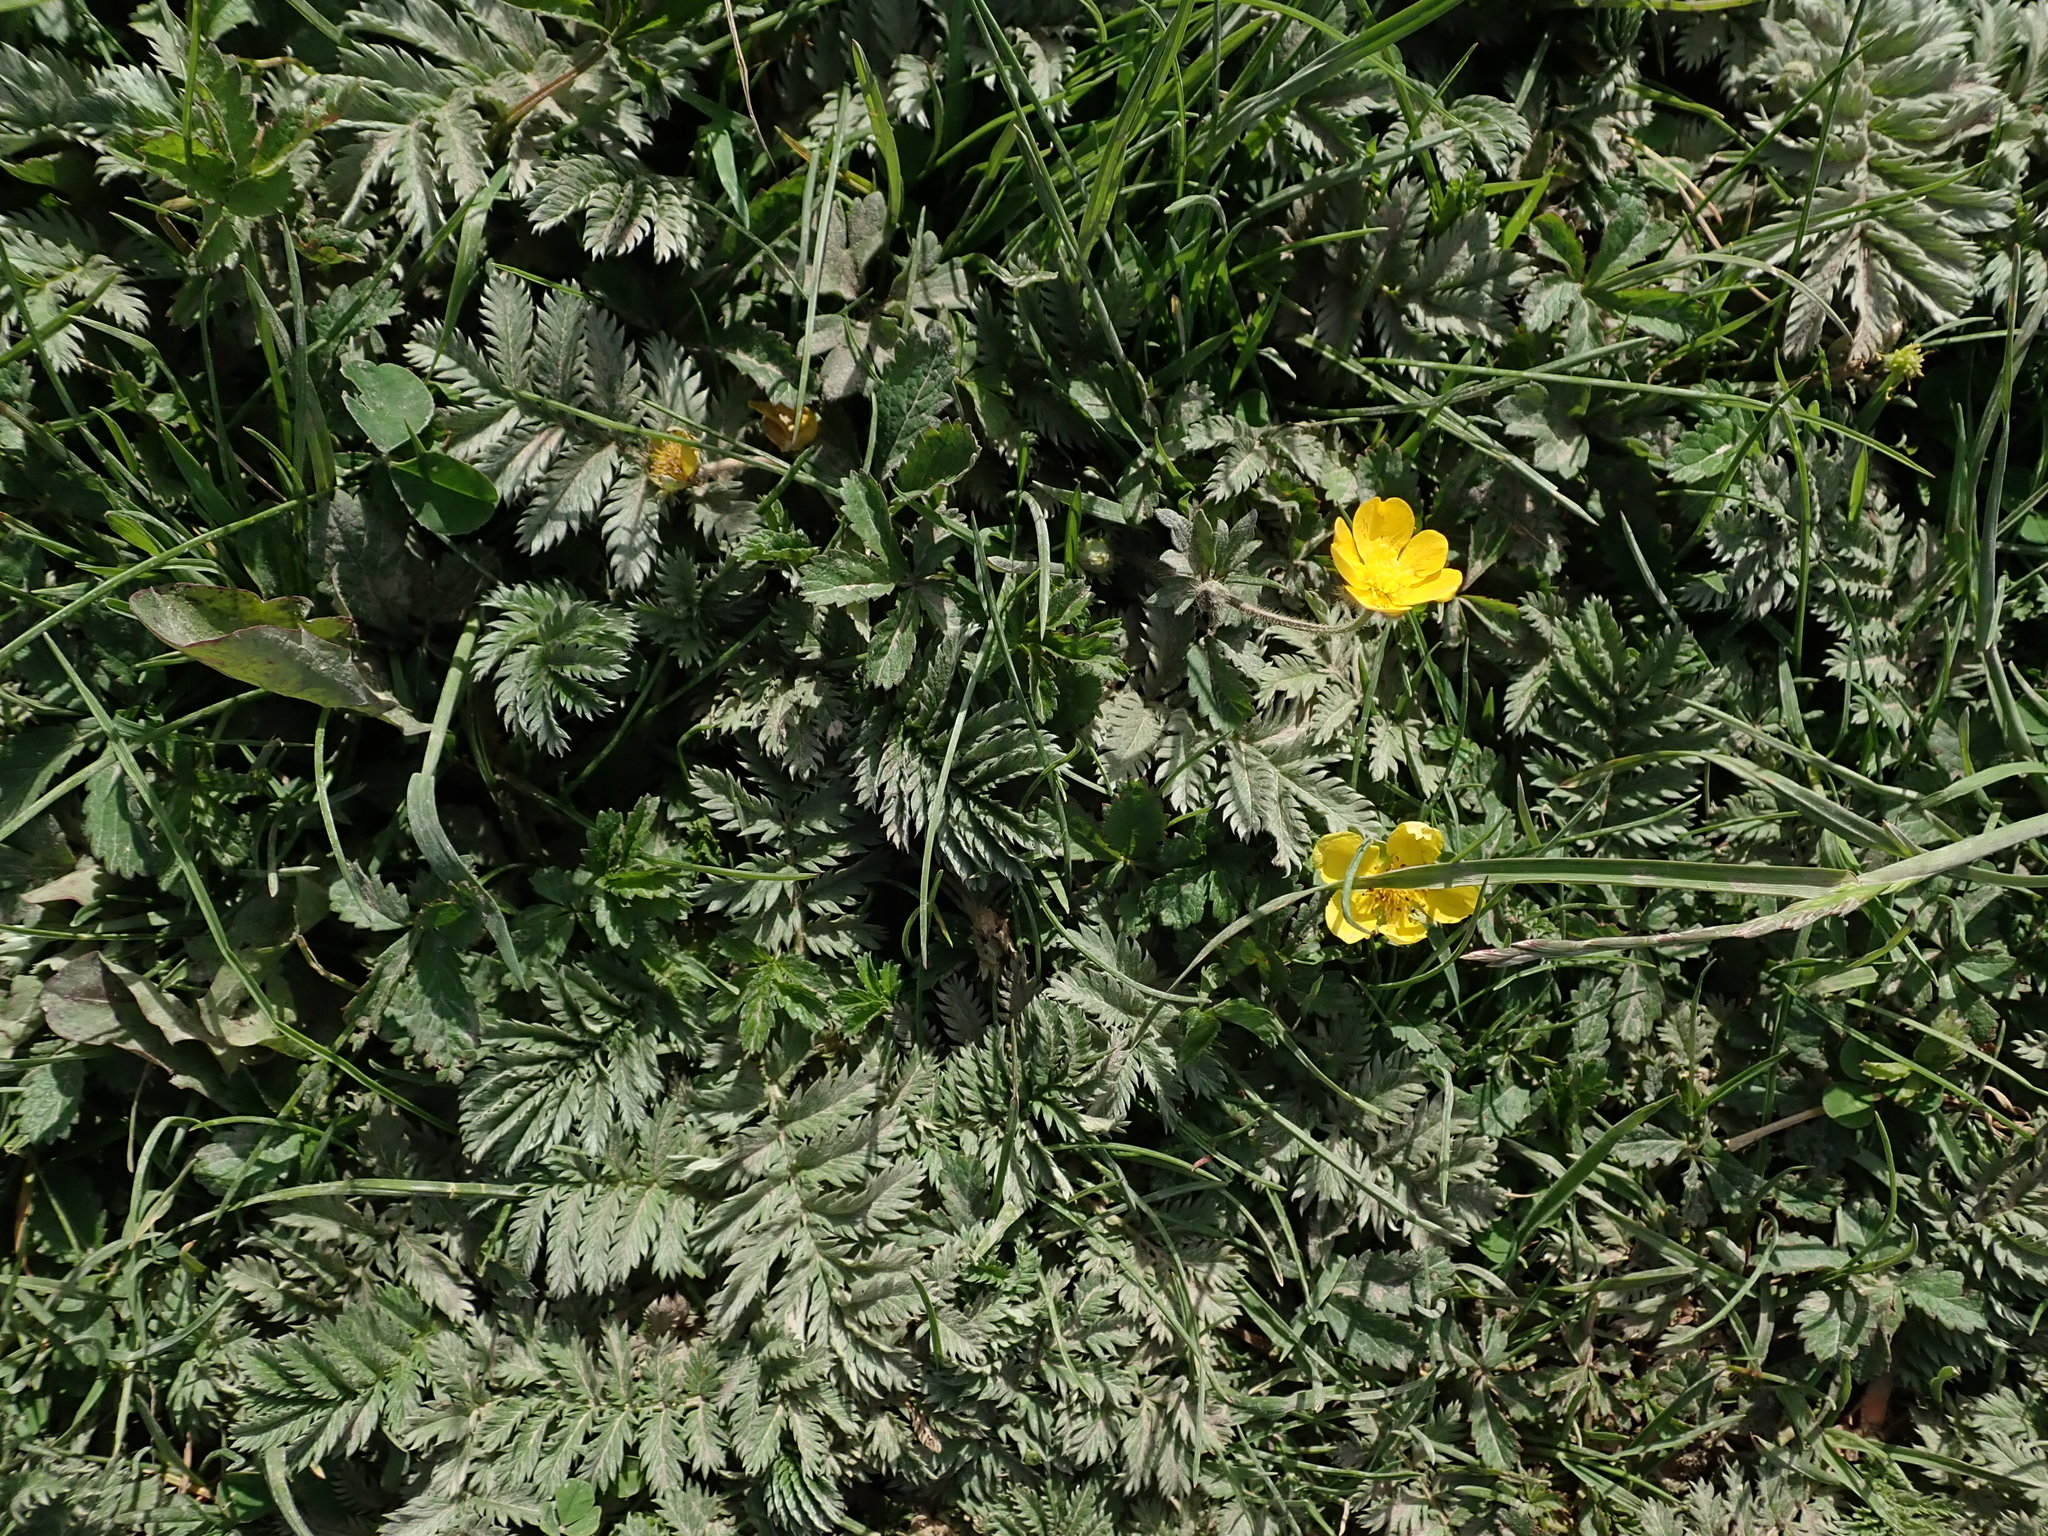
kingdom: Plantae
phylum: Tracheophyta
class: Magnoliopsida
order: Rosales
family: Rosaceae
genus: Argentina
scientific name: Argentina anserina
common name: Common silverweed
